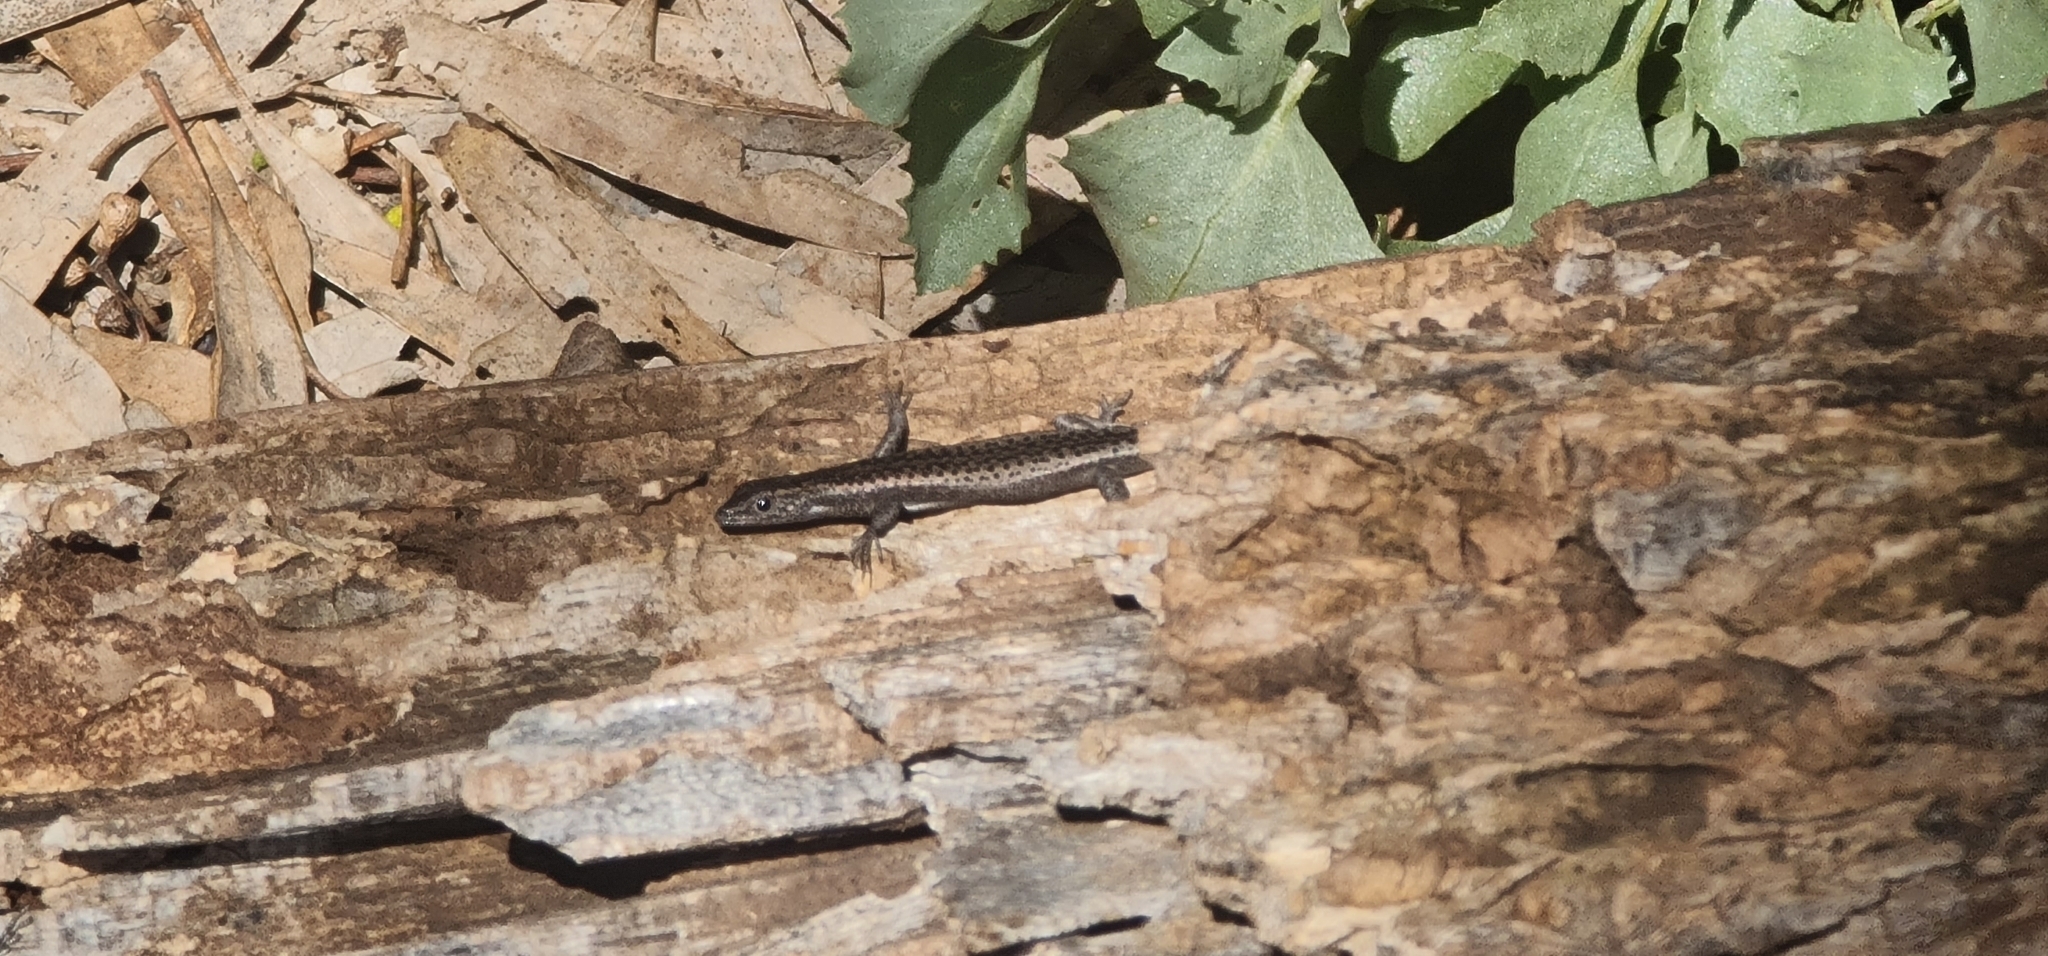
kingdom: Animalia
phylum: Chordata
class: Squamata
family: Scincidae
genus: Cryptoblepharus
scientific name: Cryptoblepharus pannosus
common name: Ragged snake-eyed skink
